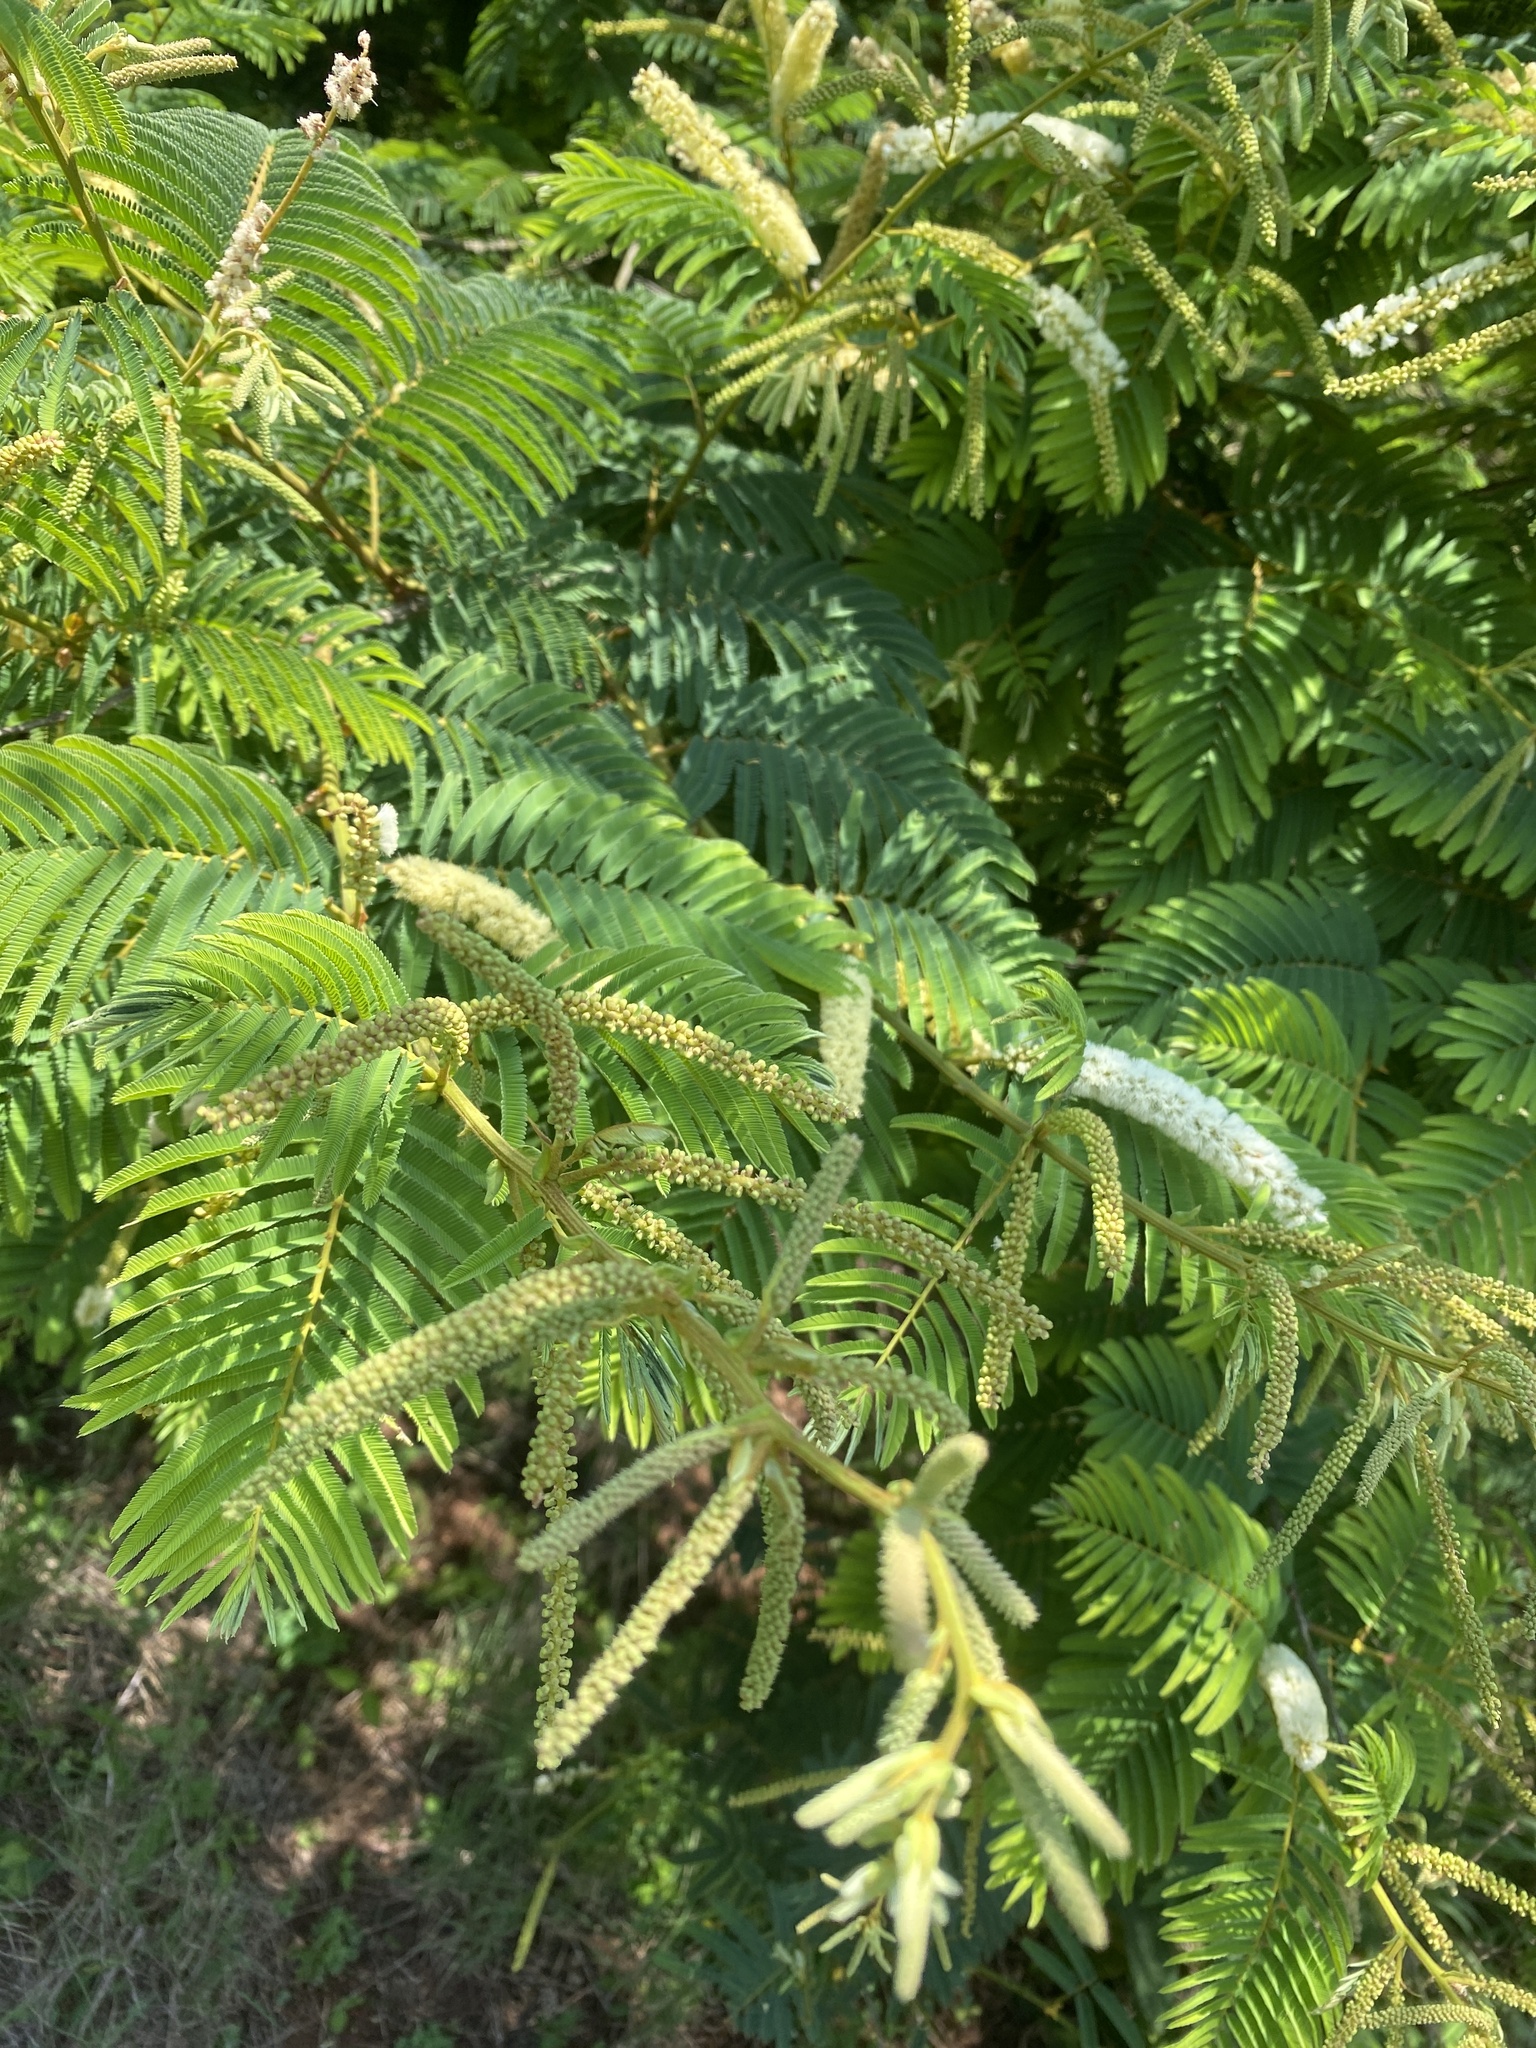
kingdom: Plantae
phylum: Tracheophyta
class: Magnoliopsida
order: Fabales
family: Fabaceae
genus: Senegalia
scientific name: Senegalia ataxacantha
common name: Flame acacia
